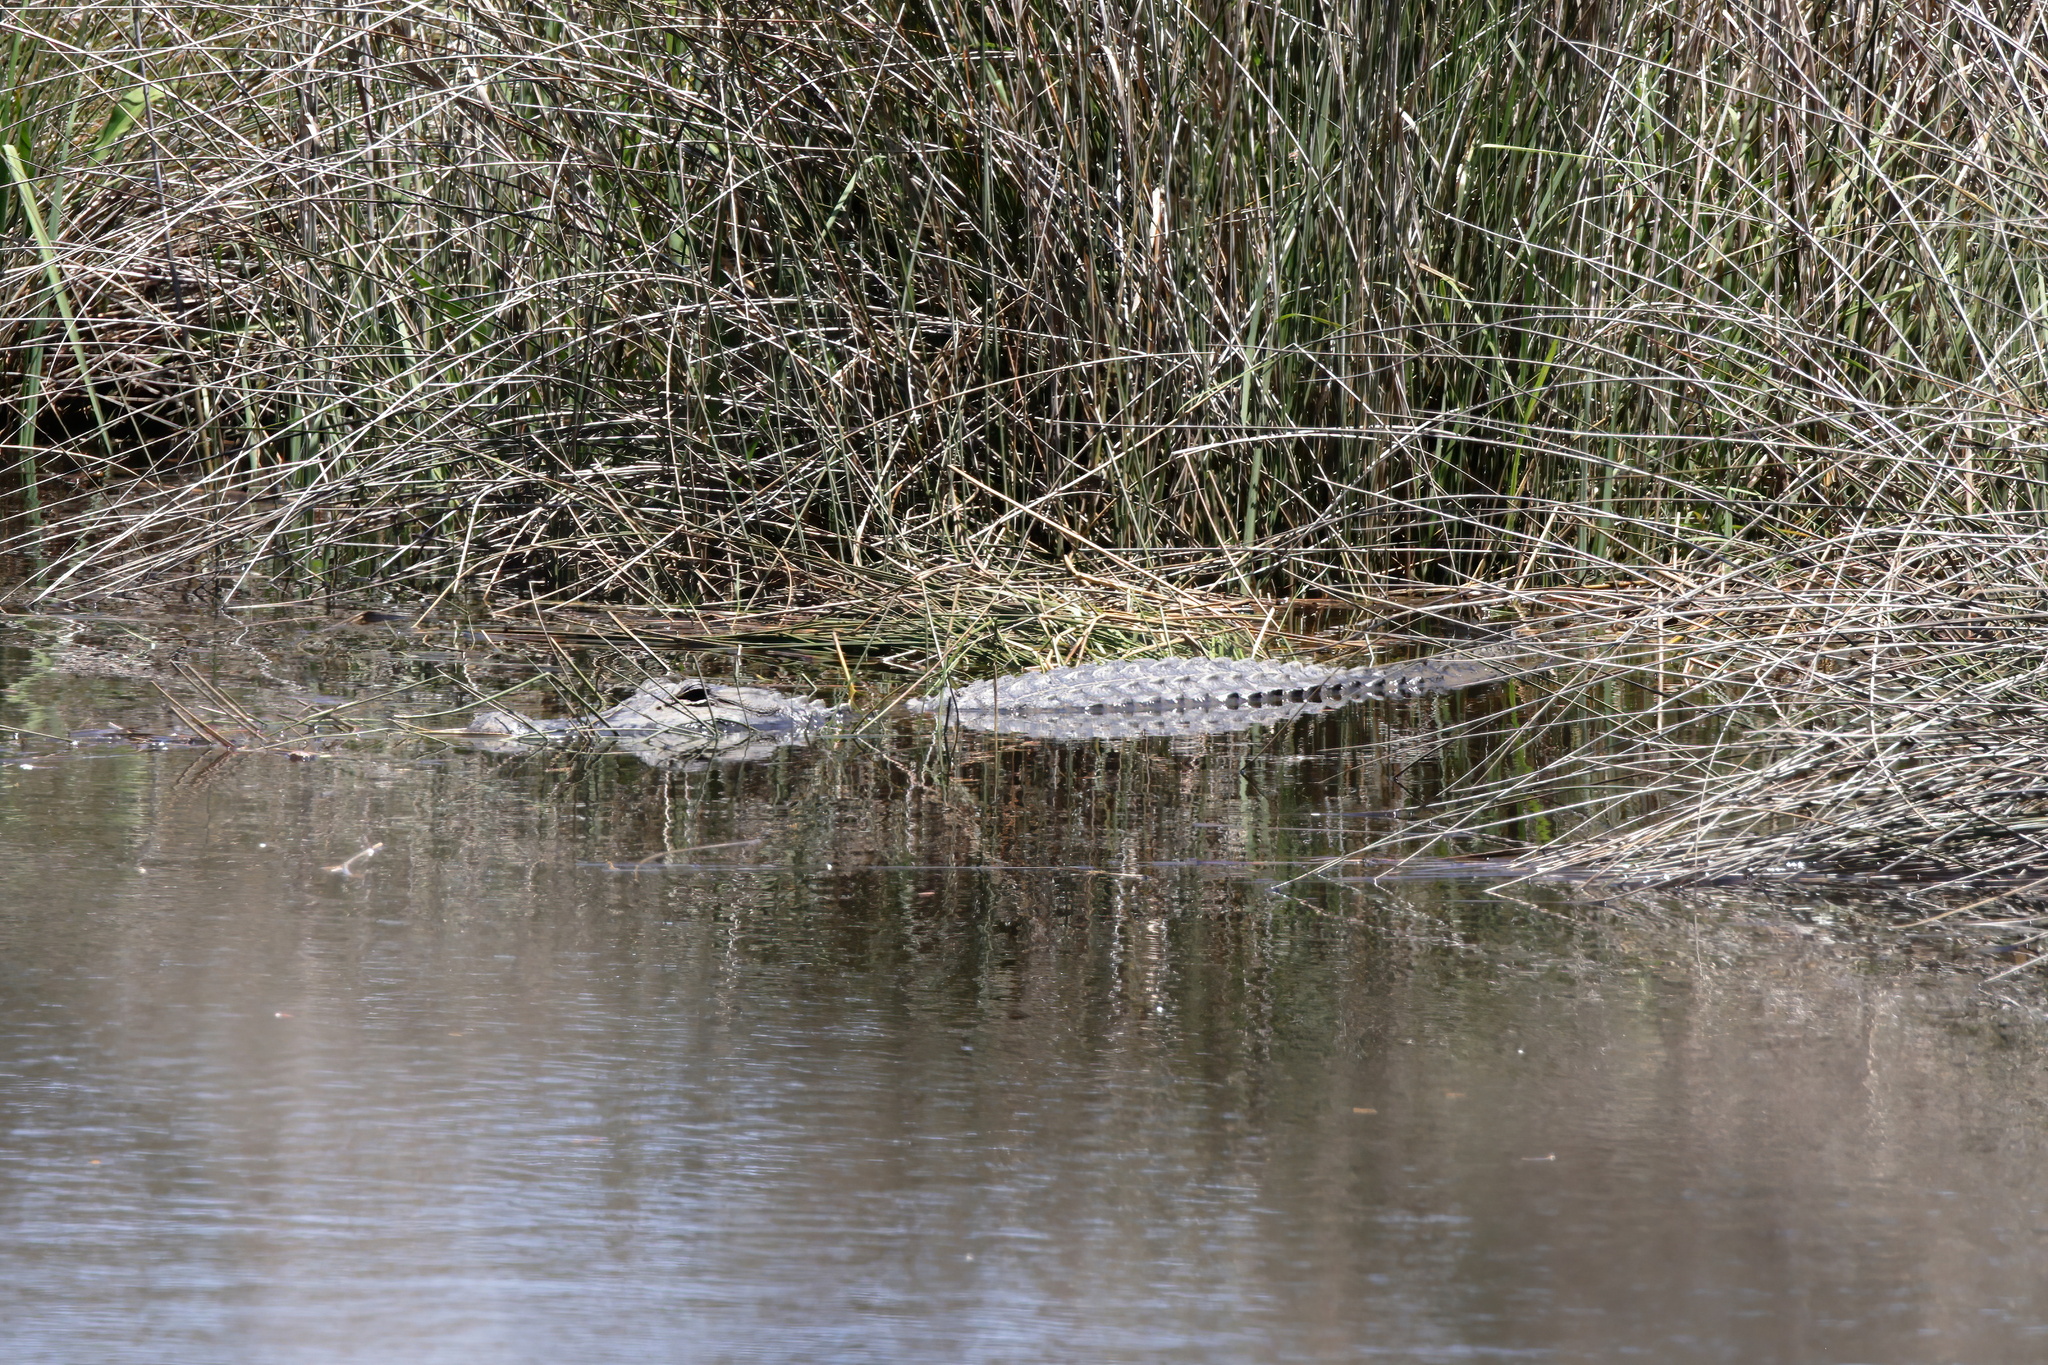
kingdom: Animalia
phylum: Chordata
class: Crocodylia
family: Alligatoridae
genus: Alligator
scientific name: Alligator mississippiensis
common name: American alligator
